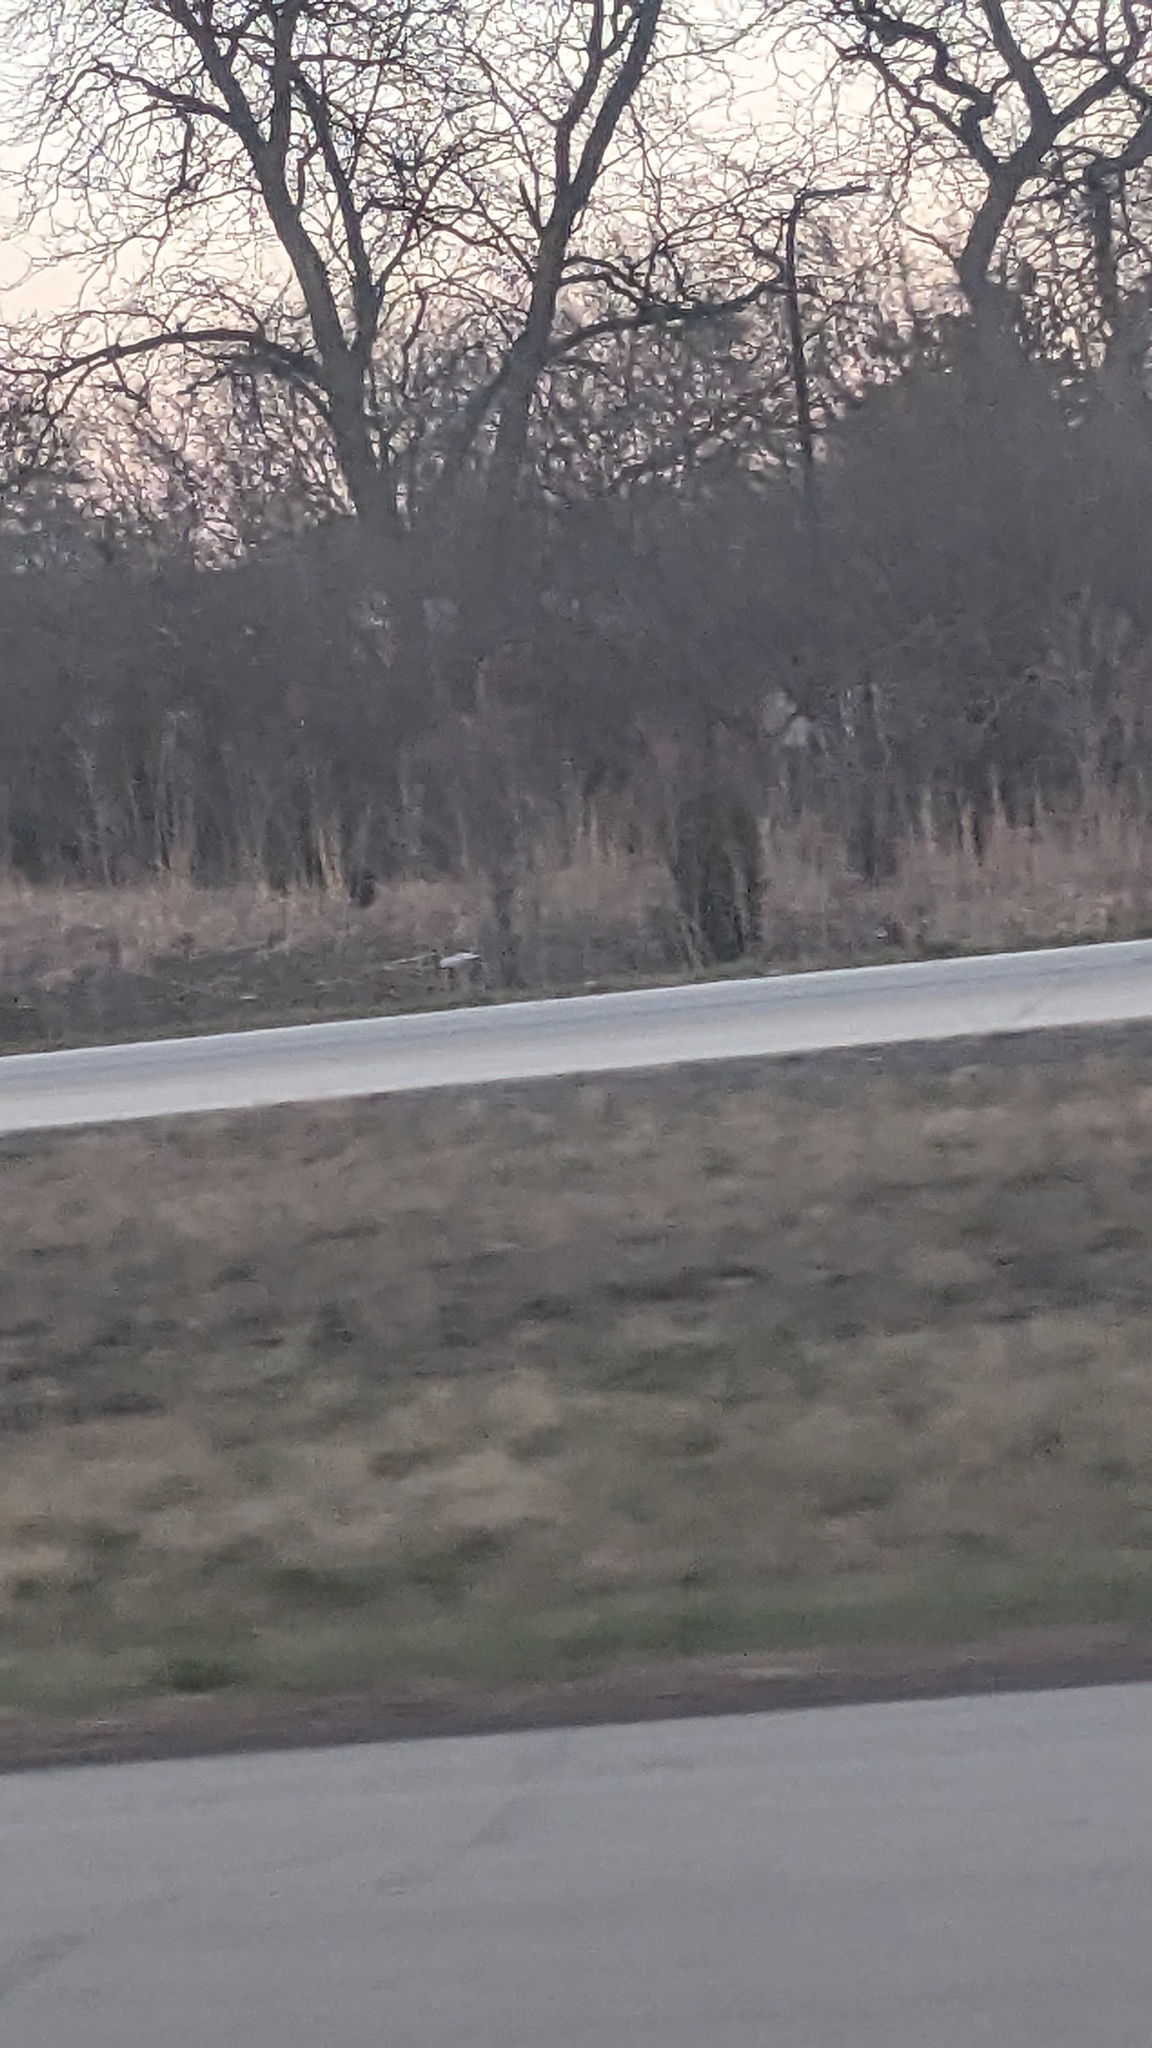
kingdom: Plantae
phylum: Tracheophyta
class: Pinopsida
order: Pinales
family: Cupressaceae
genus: Juniperus
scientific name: Juniperus virginiana
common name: Red juniper
